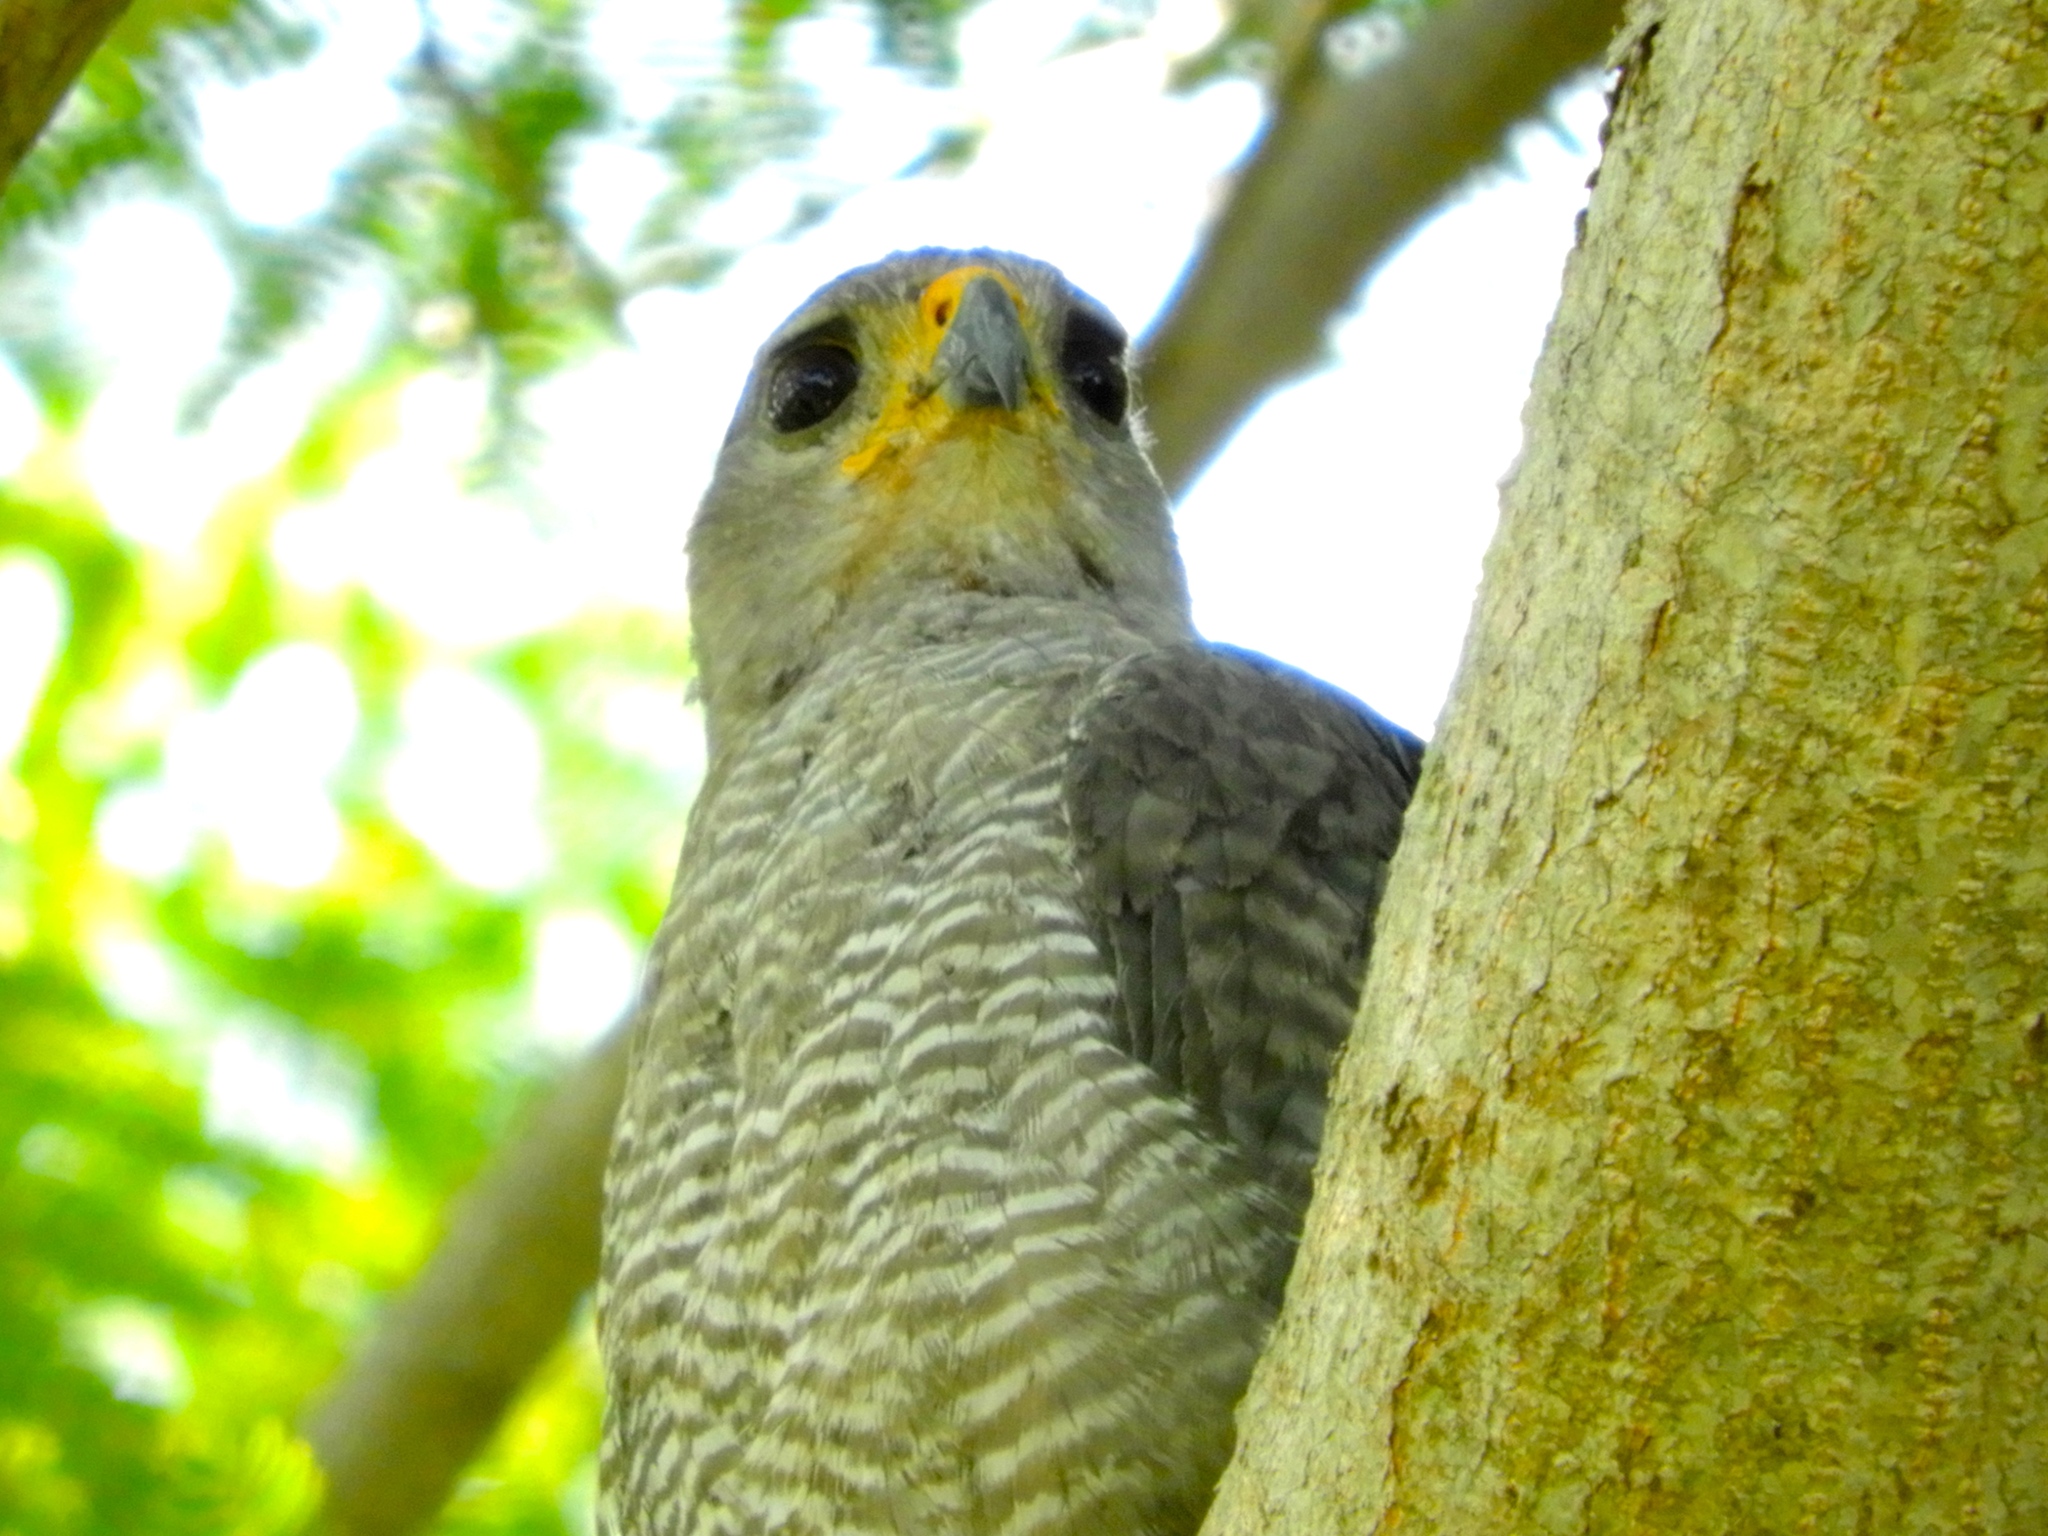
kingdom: Animalia
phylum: Chordata
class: Aves
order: Accipitriformes
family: Accipitridae
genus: Buteo
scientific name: Buteo nitidus
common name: Grey-lined hawk
